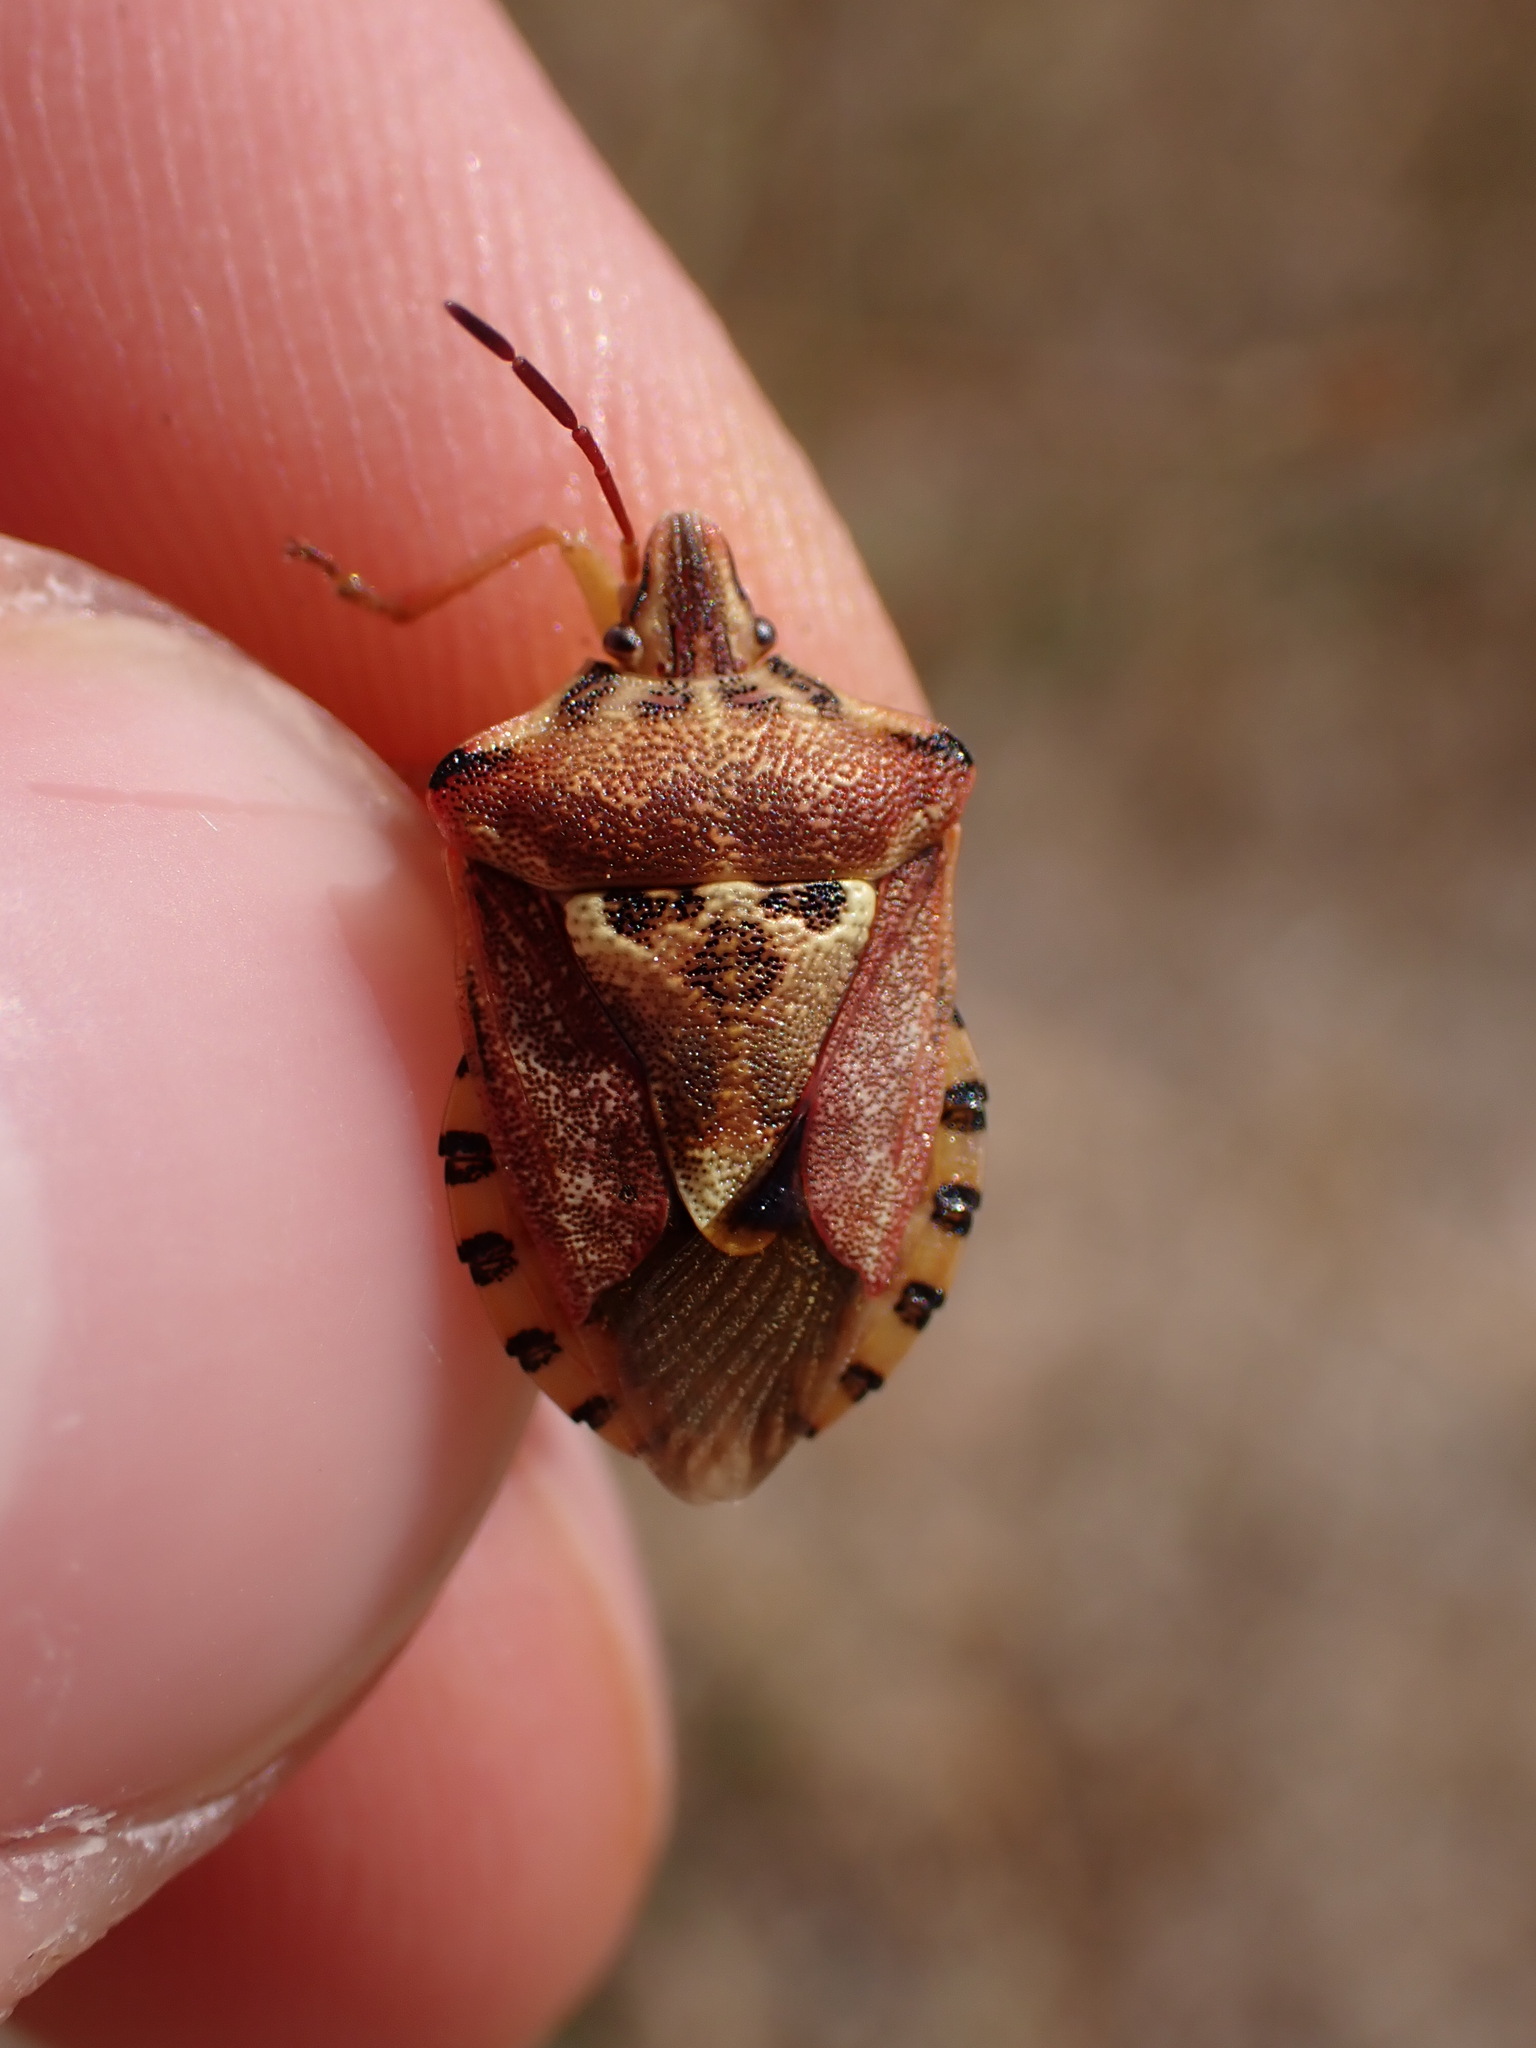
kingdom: Animalia
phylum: Arthropoda
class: Insecta
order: Hemiptera
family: Miridae
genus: Orthops
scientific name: Orthops kalmii
